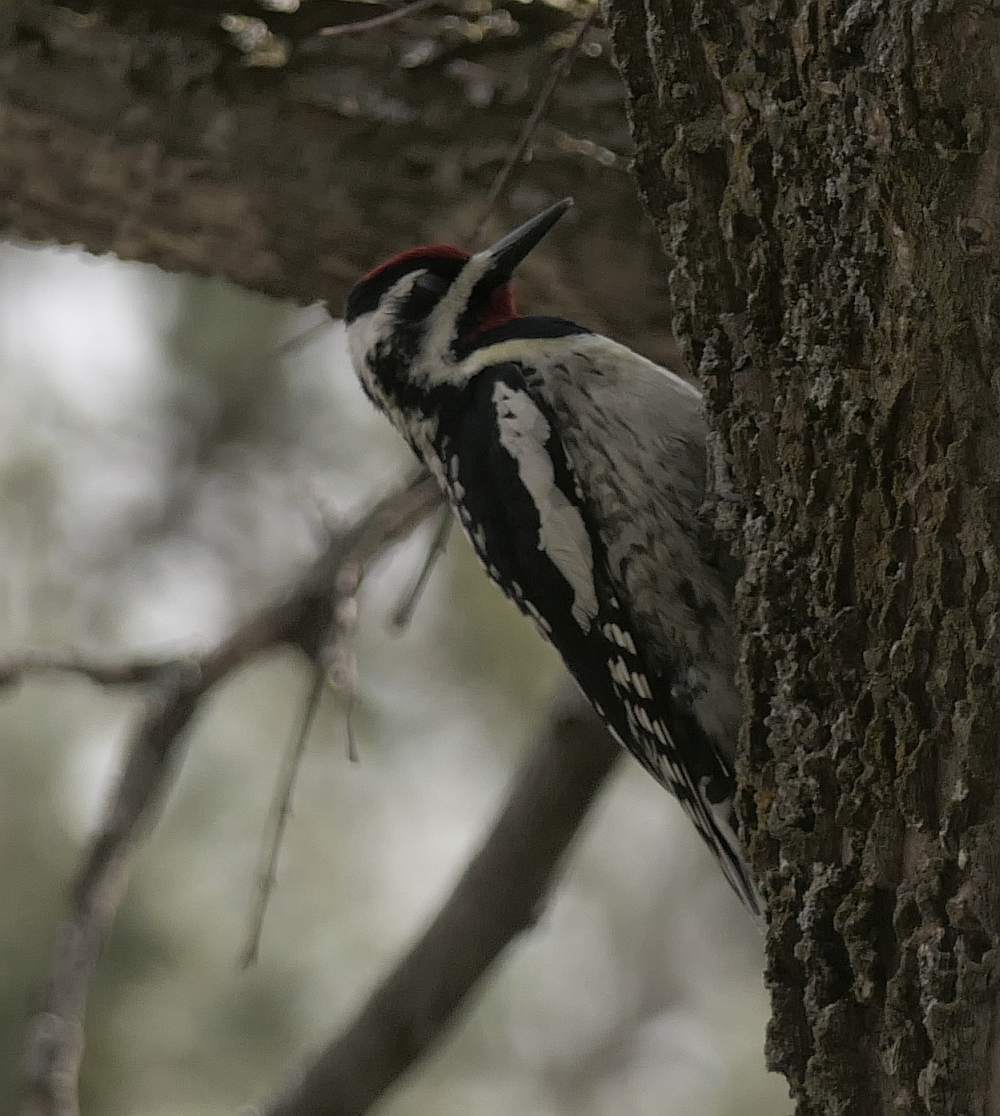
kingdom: Animalia
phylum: Chordata
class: Aves
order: Piciformes
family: Picidae
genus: Sphyrapicus
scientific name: Sphyrapicus varius
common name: Yellow-bellied sapsucker
